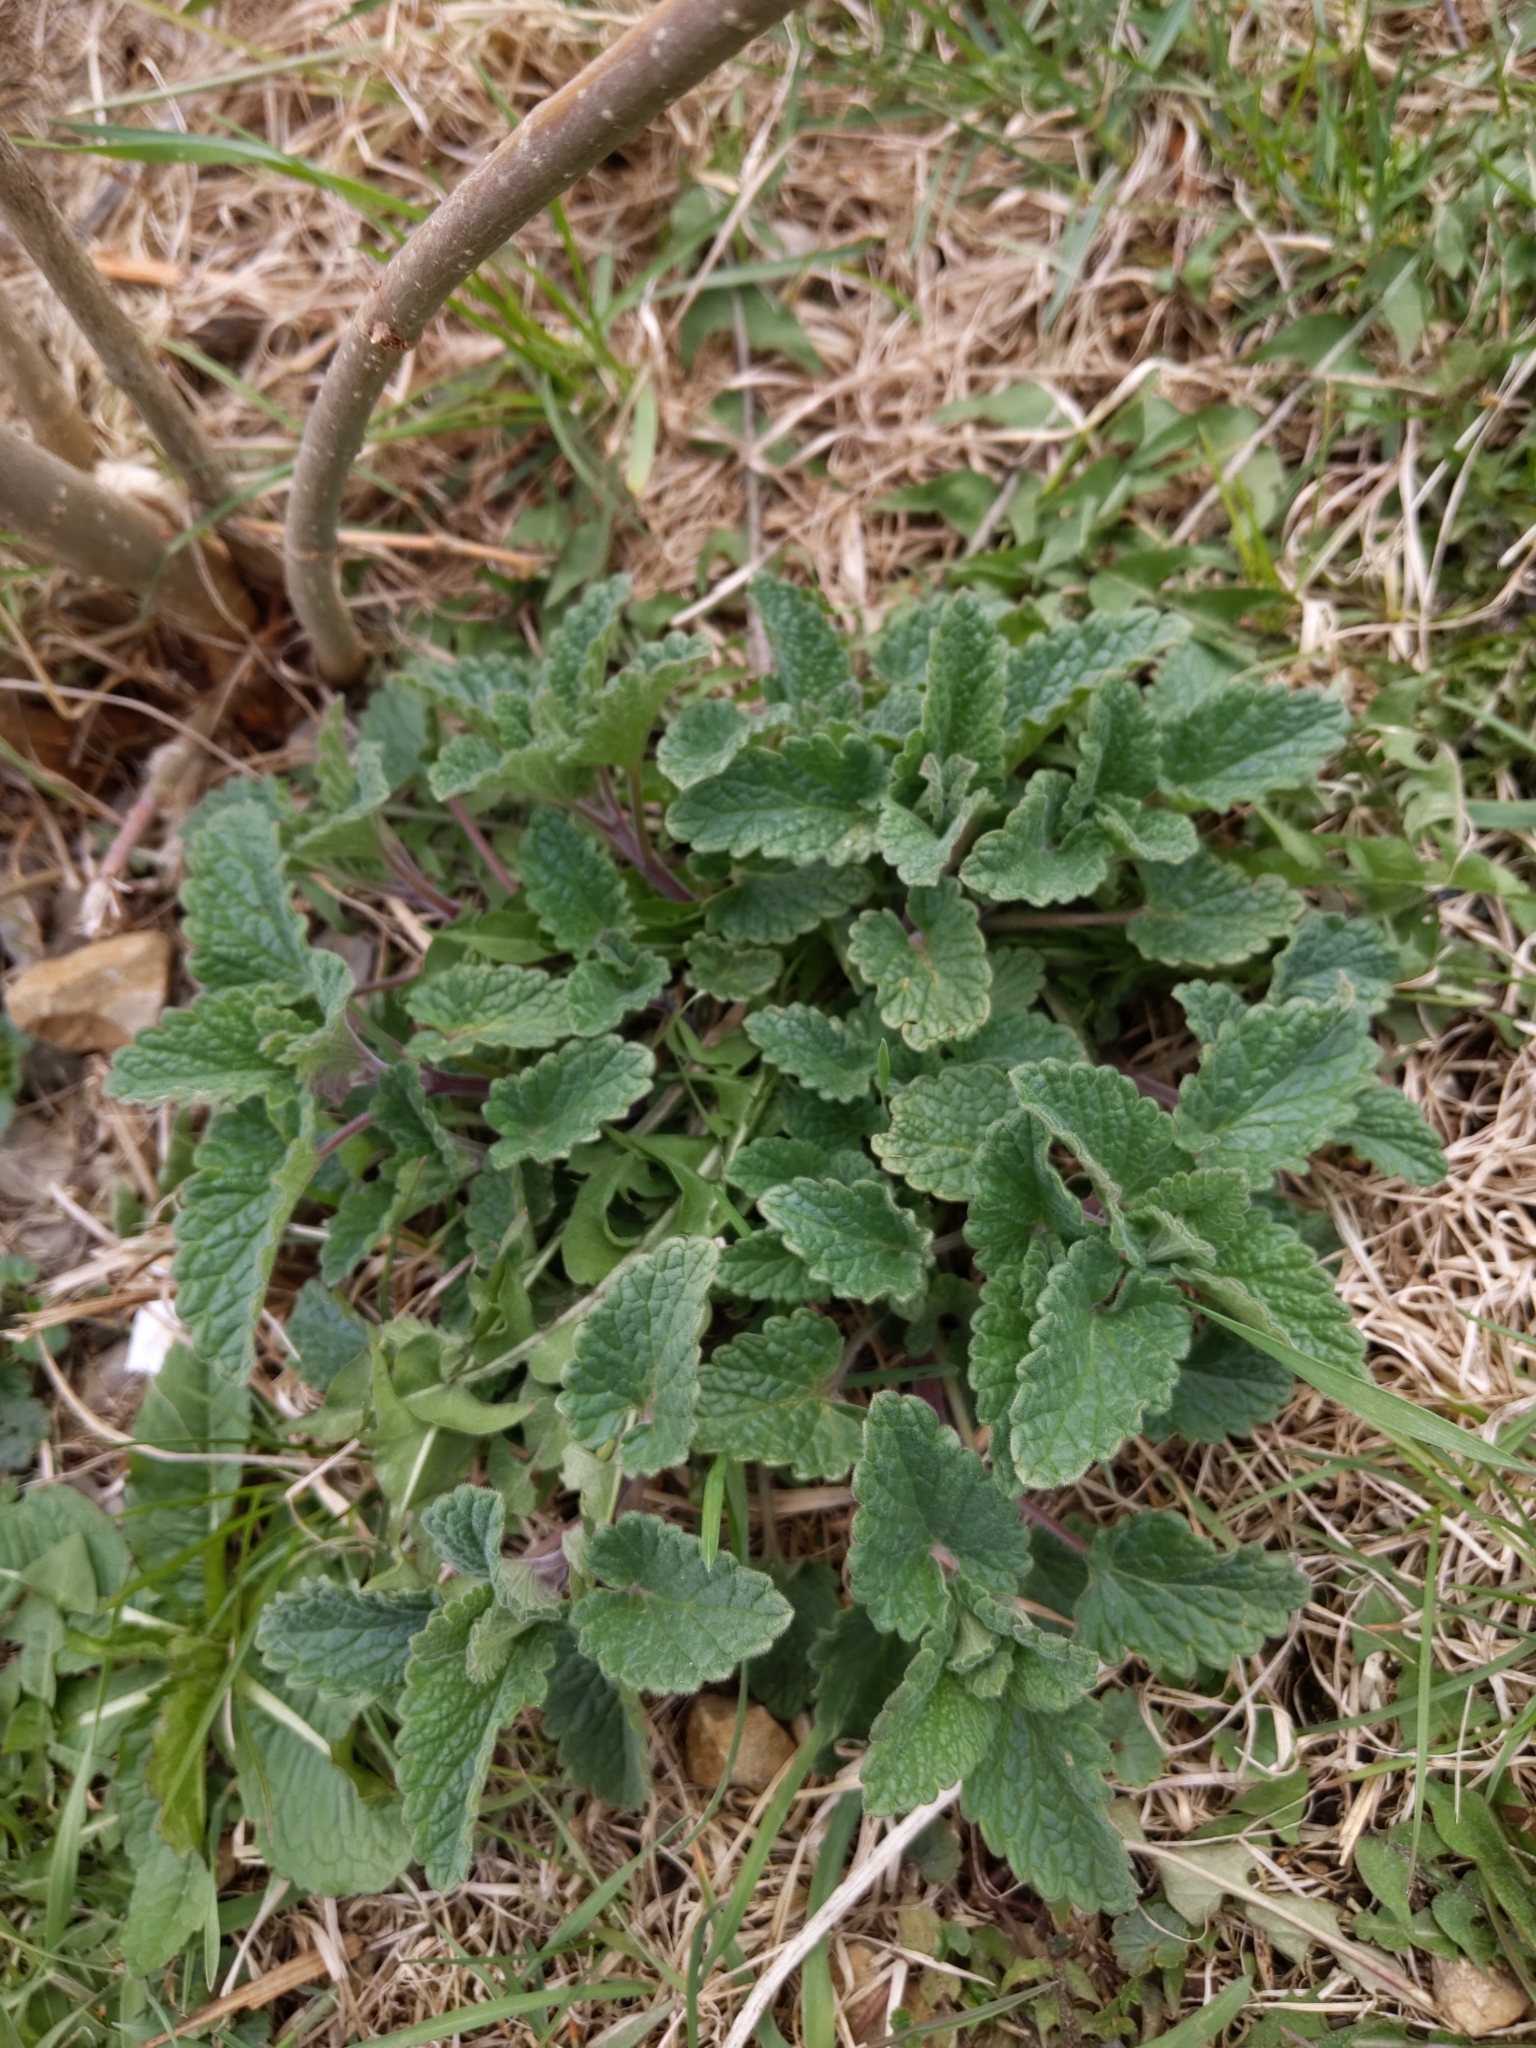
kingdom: Plantae
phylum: Tracheophyta
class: Magnoliopsida
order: Lamiales
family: Lamiaceae
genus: Nepeta
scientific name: Nepeta cataria
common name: Catnip
